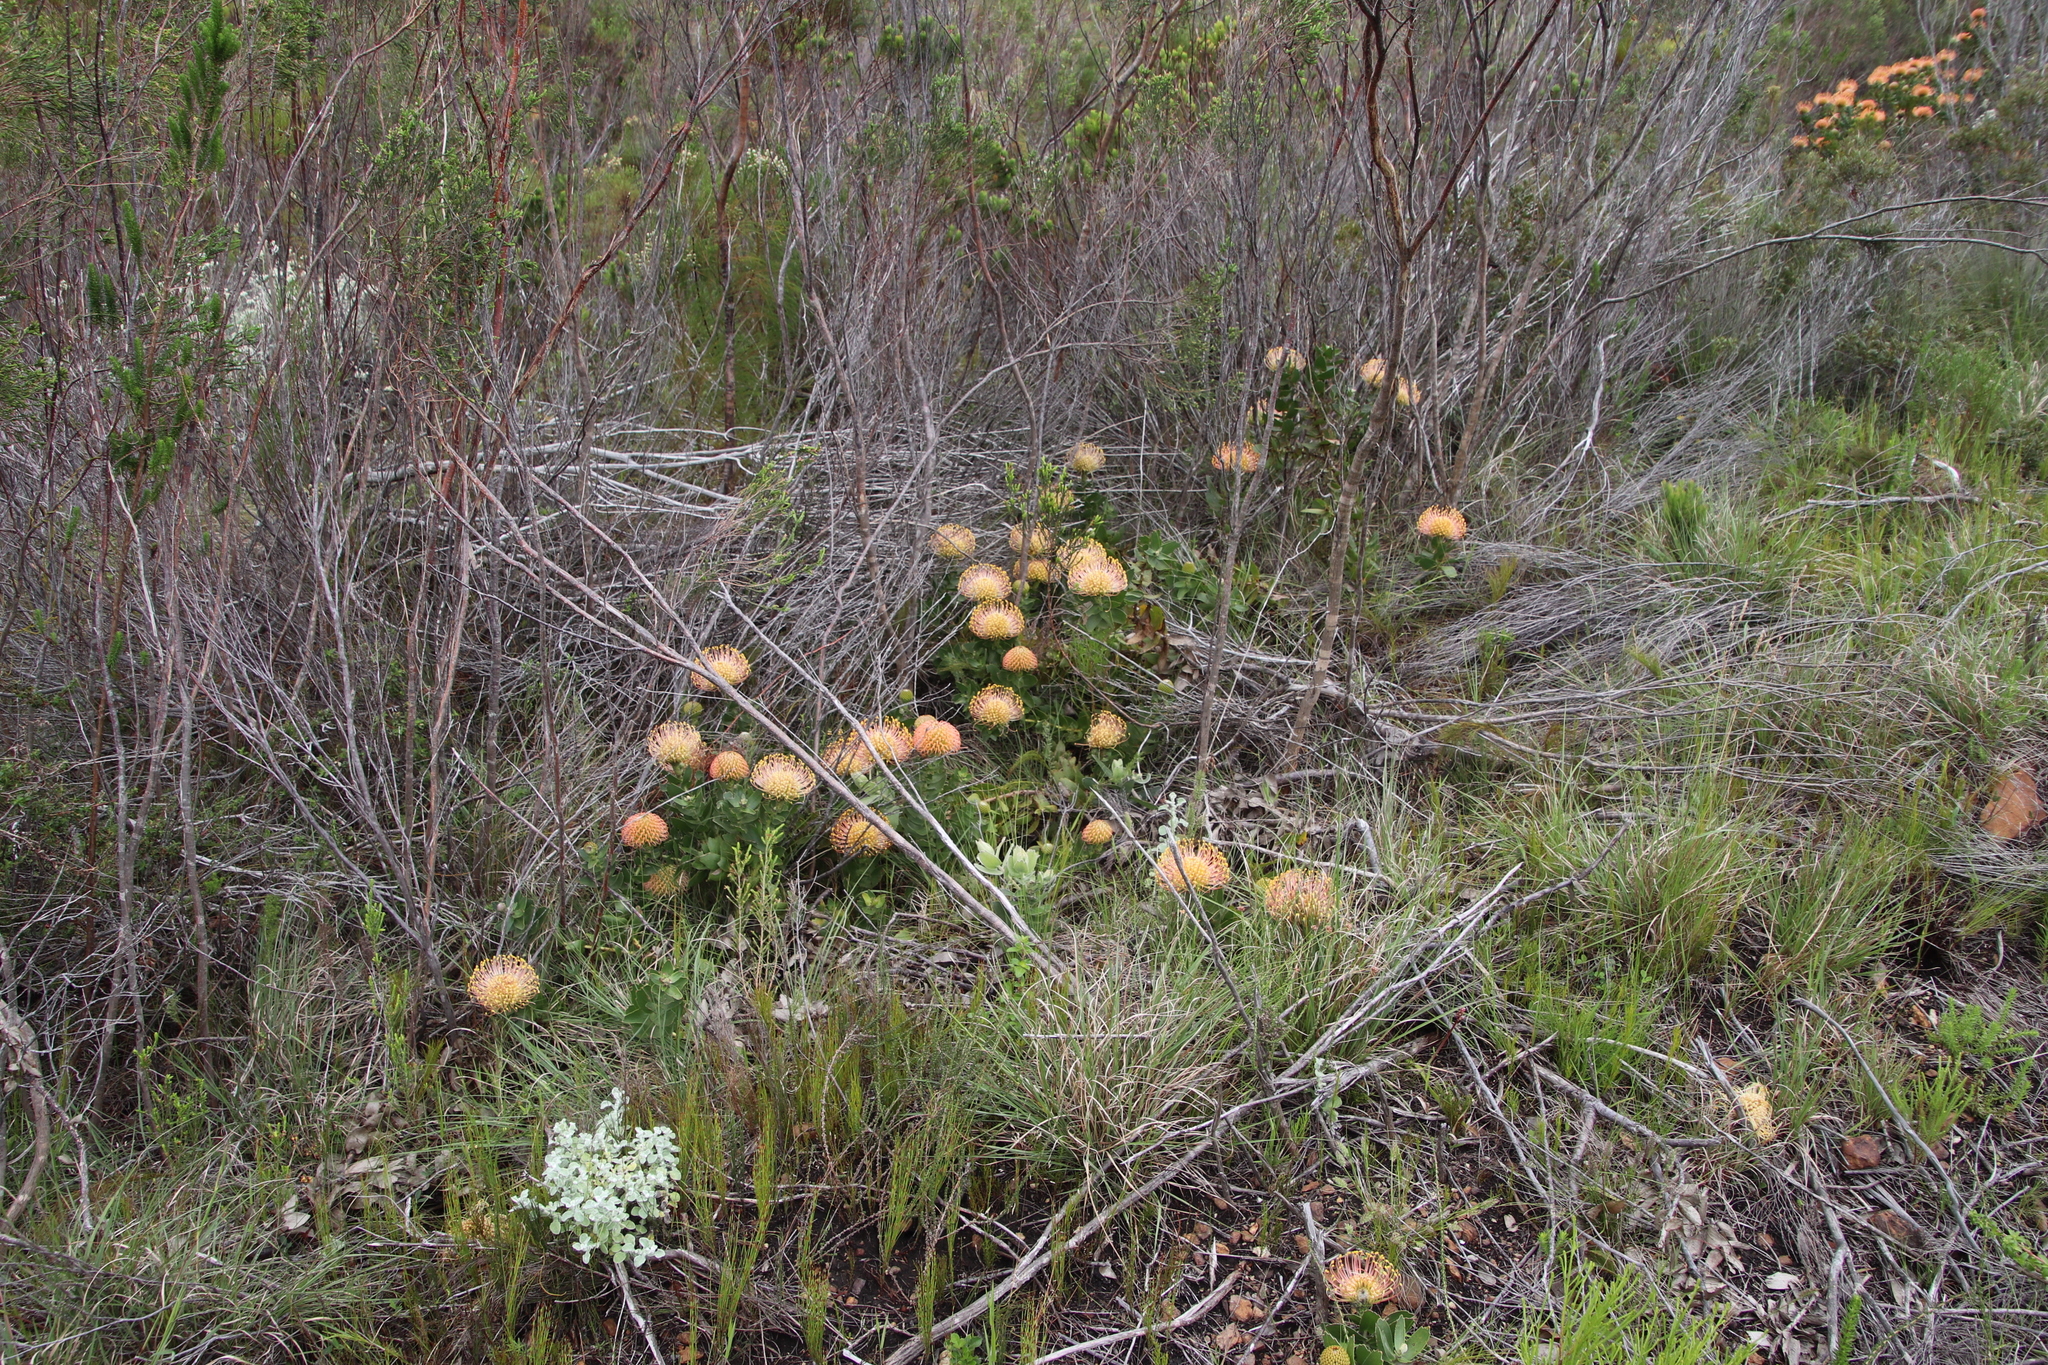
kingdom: Plantae
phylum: Tracheophyta
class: Magnoliopsida
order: Proteales
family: Proteaceae
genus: Leucospermum
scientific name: Leucospermum cordifolium
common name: Red pincushion-protea
